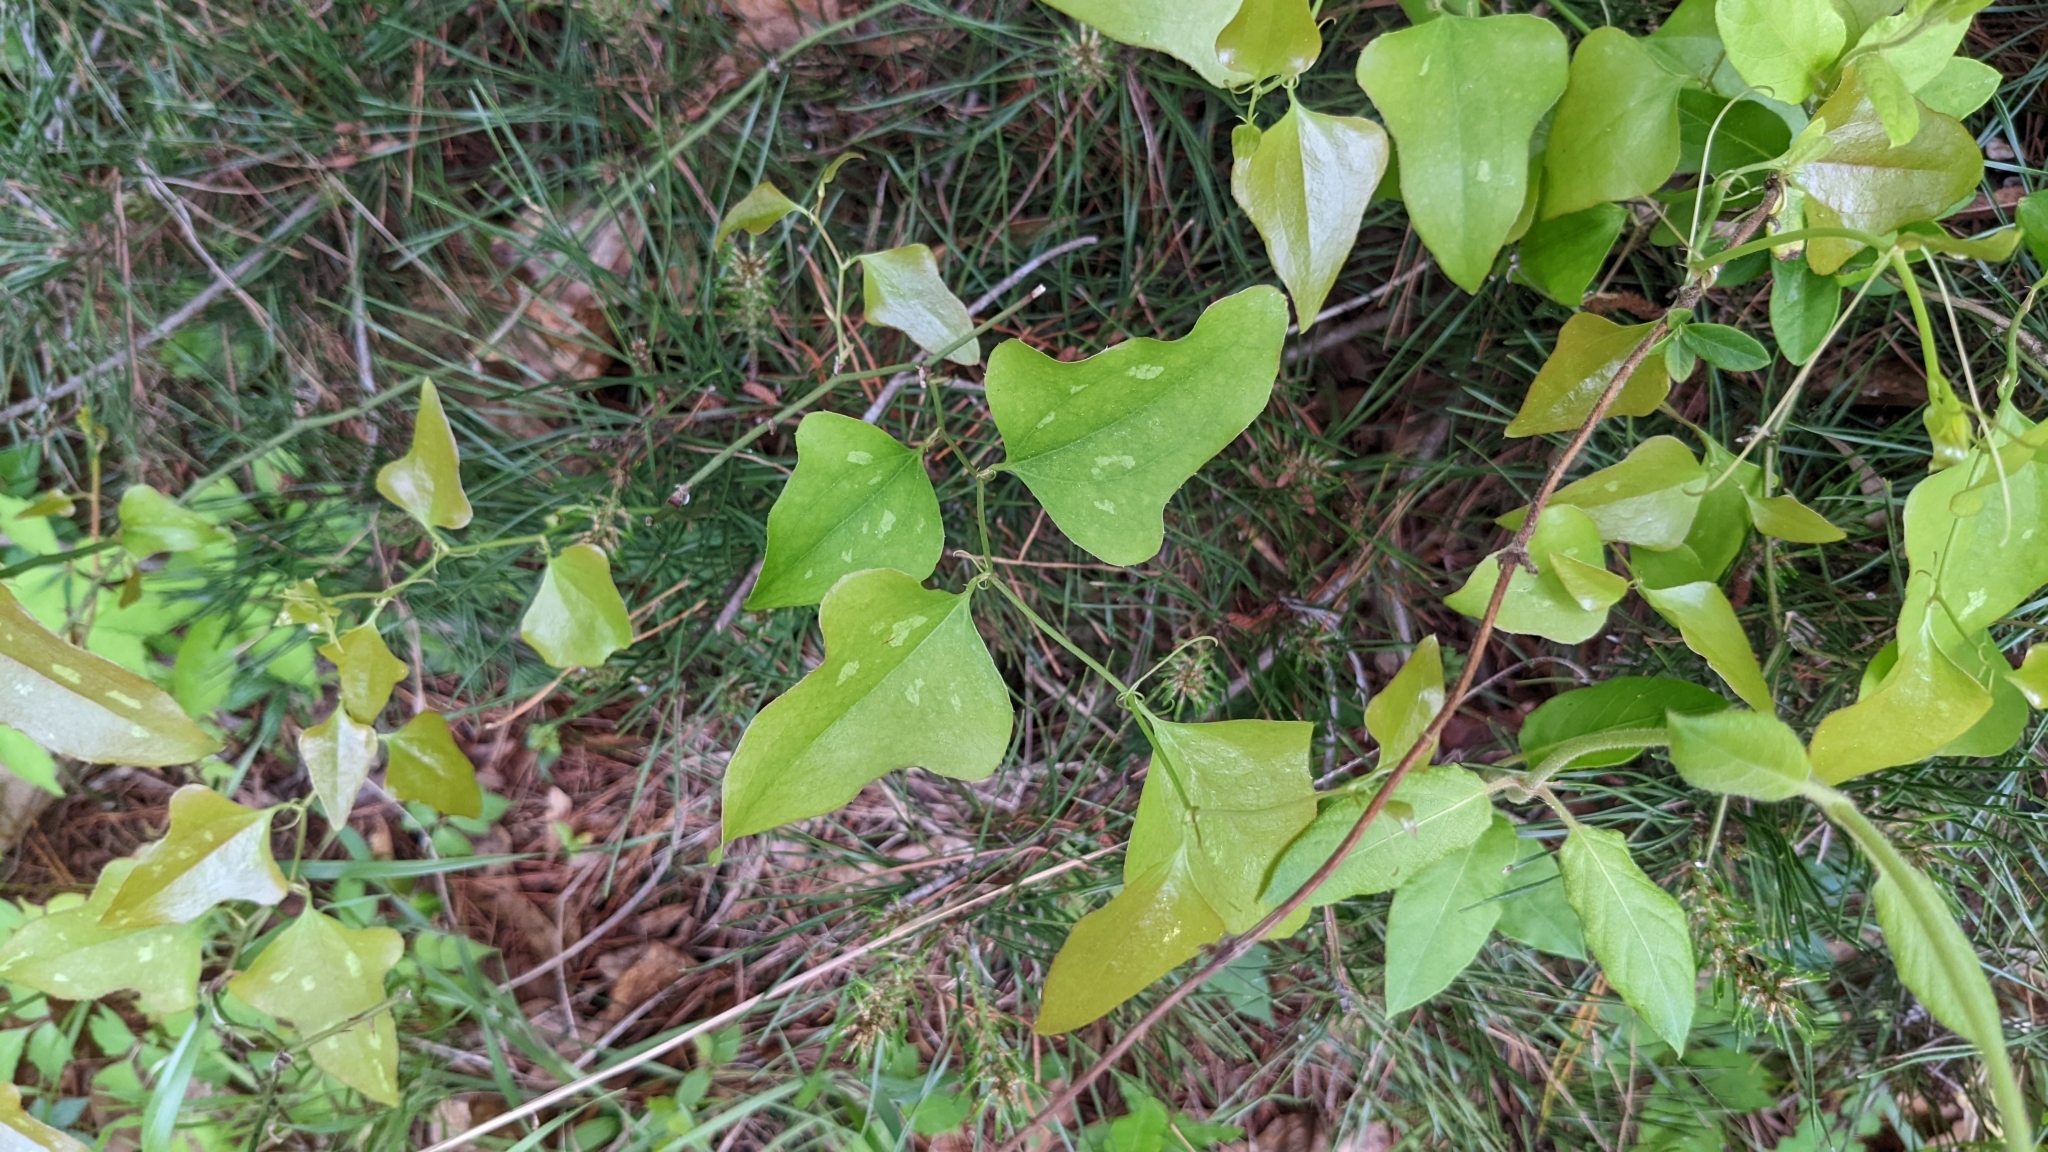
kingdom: Plantae
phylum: Tracheophyta
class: Liliopsida
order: Liliales
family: Smilacaceae
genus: Smilax
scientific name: Smilax bona-nox
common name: Catbrier
